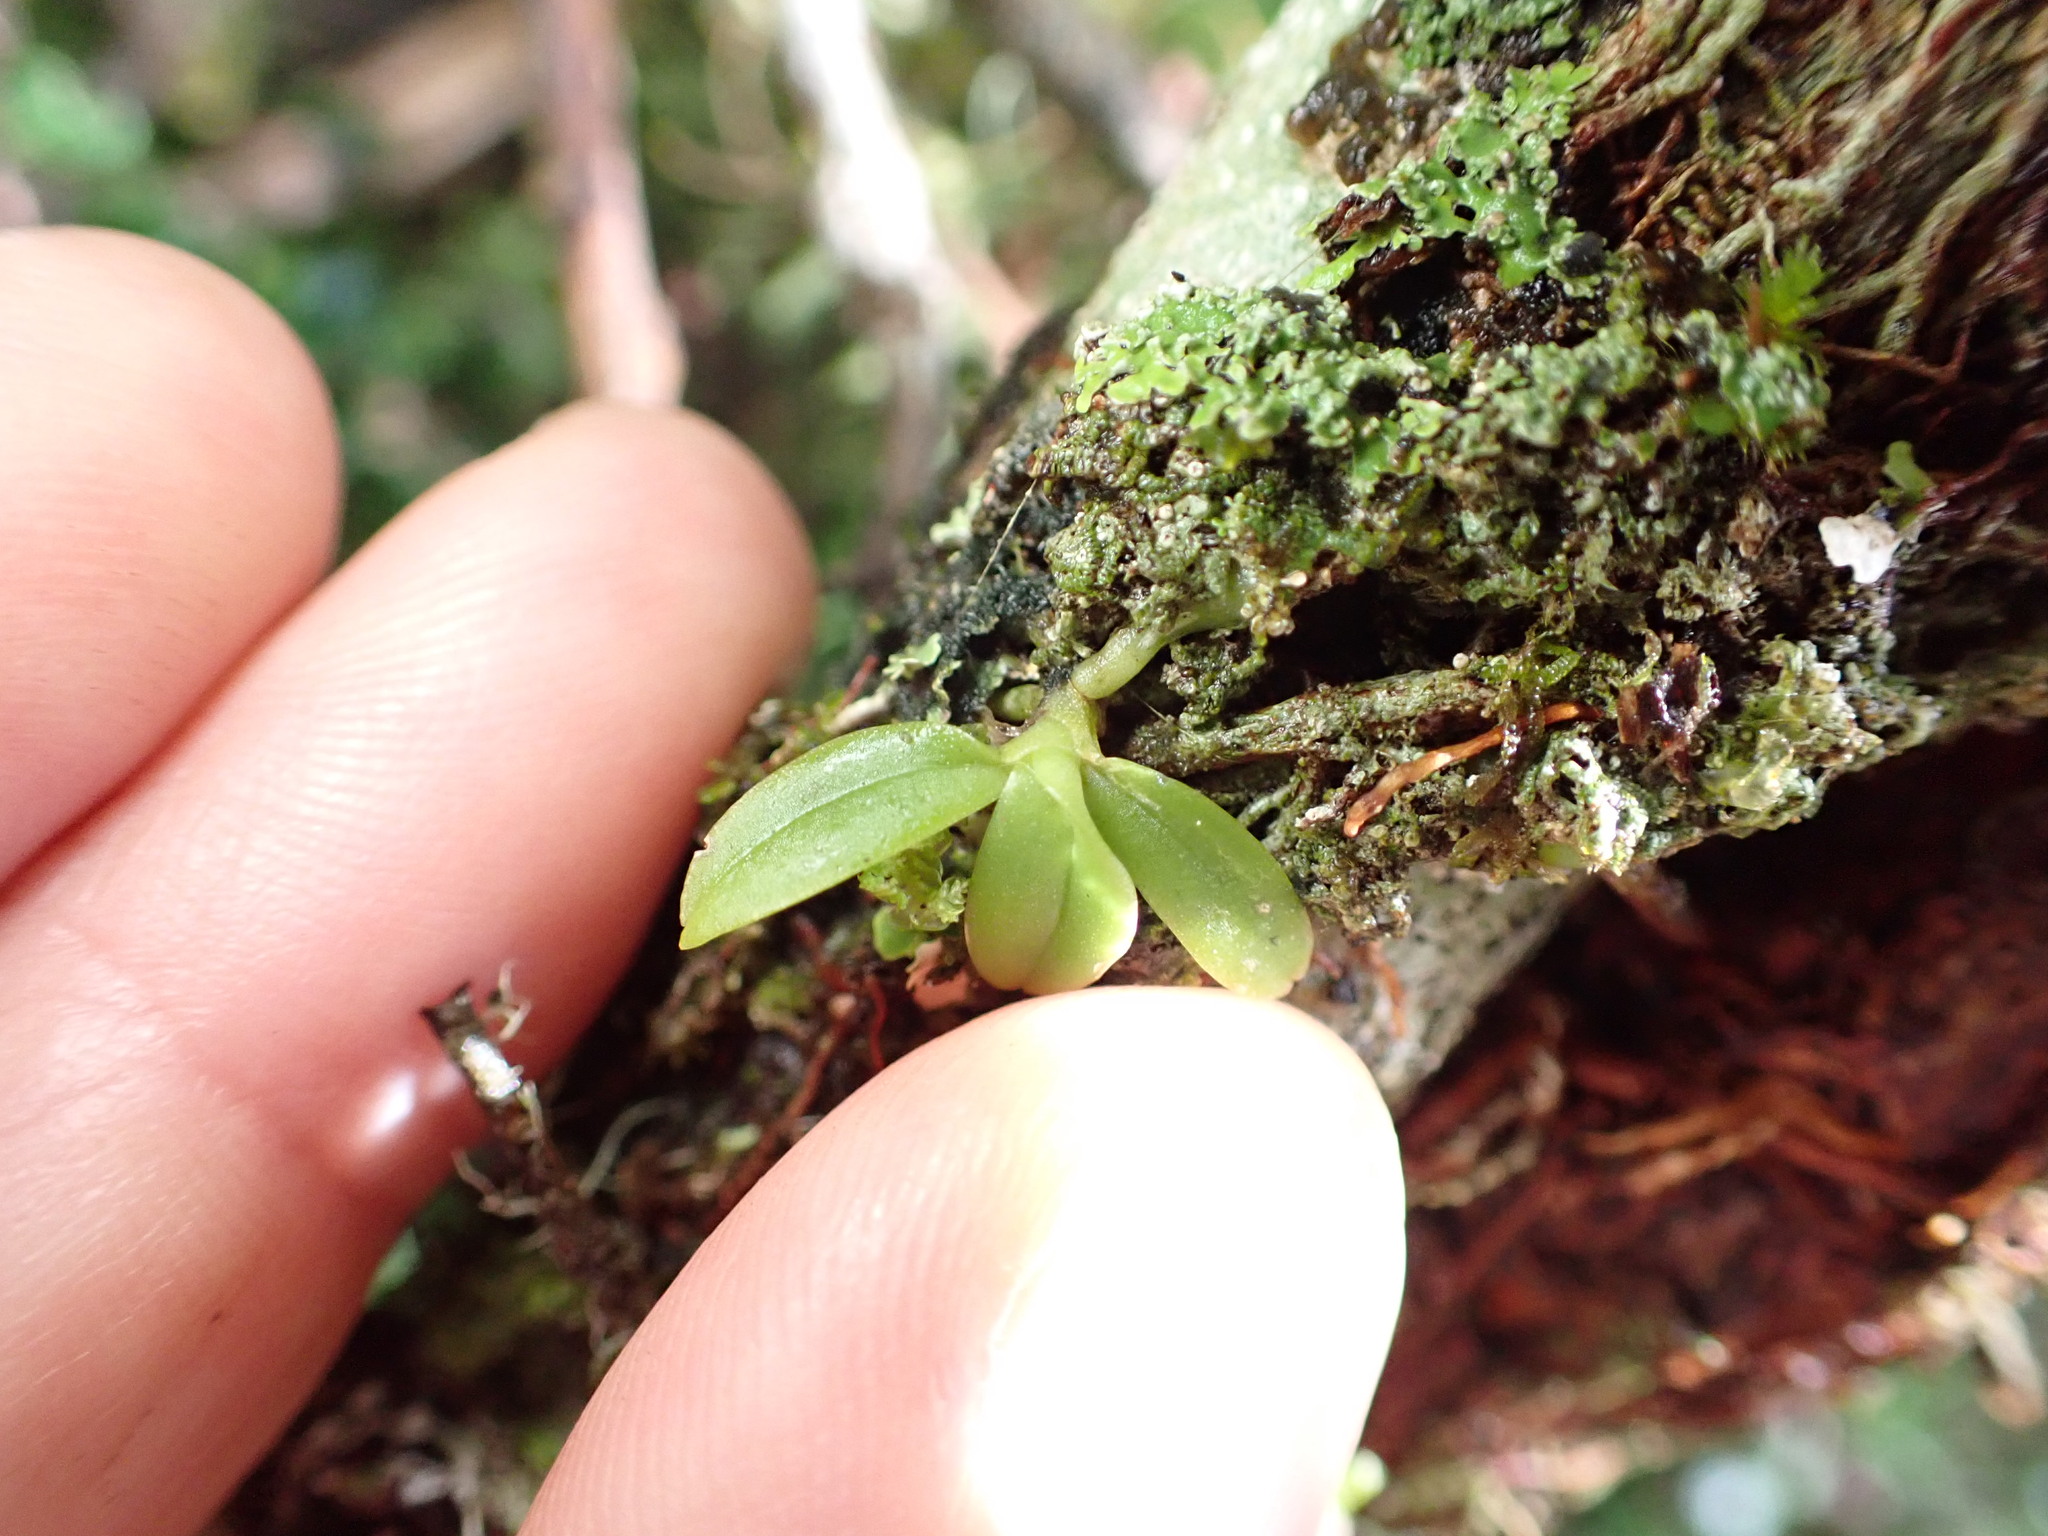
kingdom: Plantae
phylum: Tracheophyta
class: Liliopsida
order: Asparagales
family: Orchidaceae
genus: Drymoanthus
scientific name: Drymoanthus adversus
